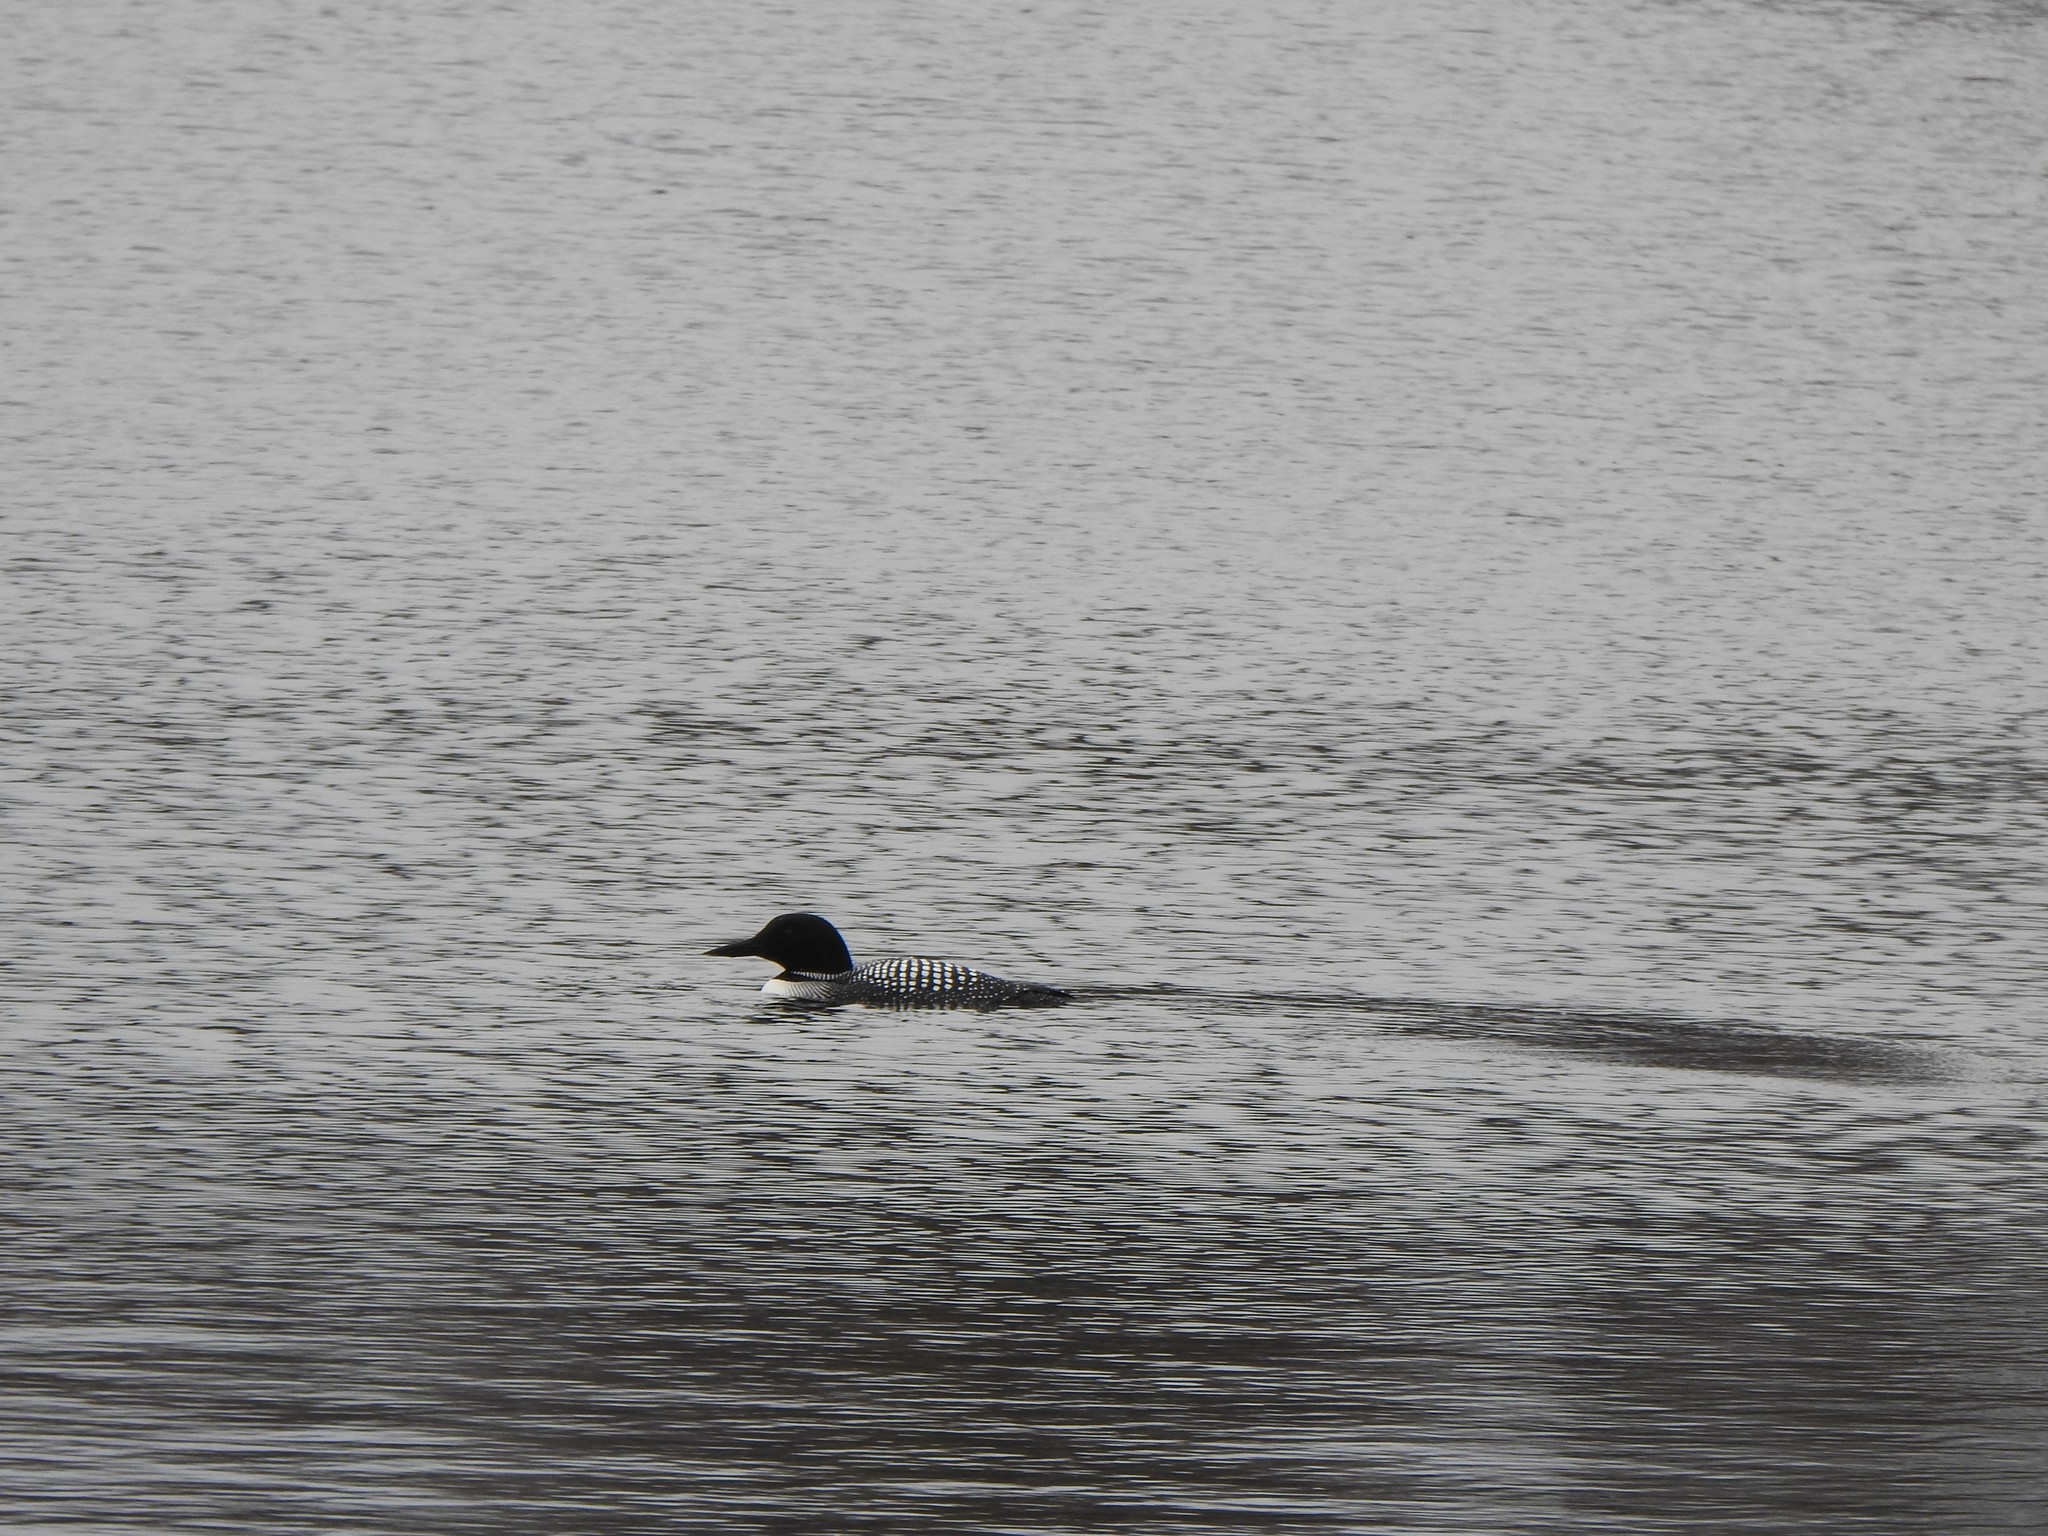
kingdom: Animalia
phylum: Chordata
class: Aves
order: Gaviiformes
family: Gaviidae
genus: Gavia
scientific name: Gavia immer
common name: Common loon
